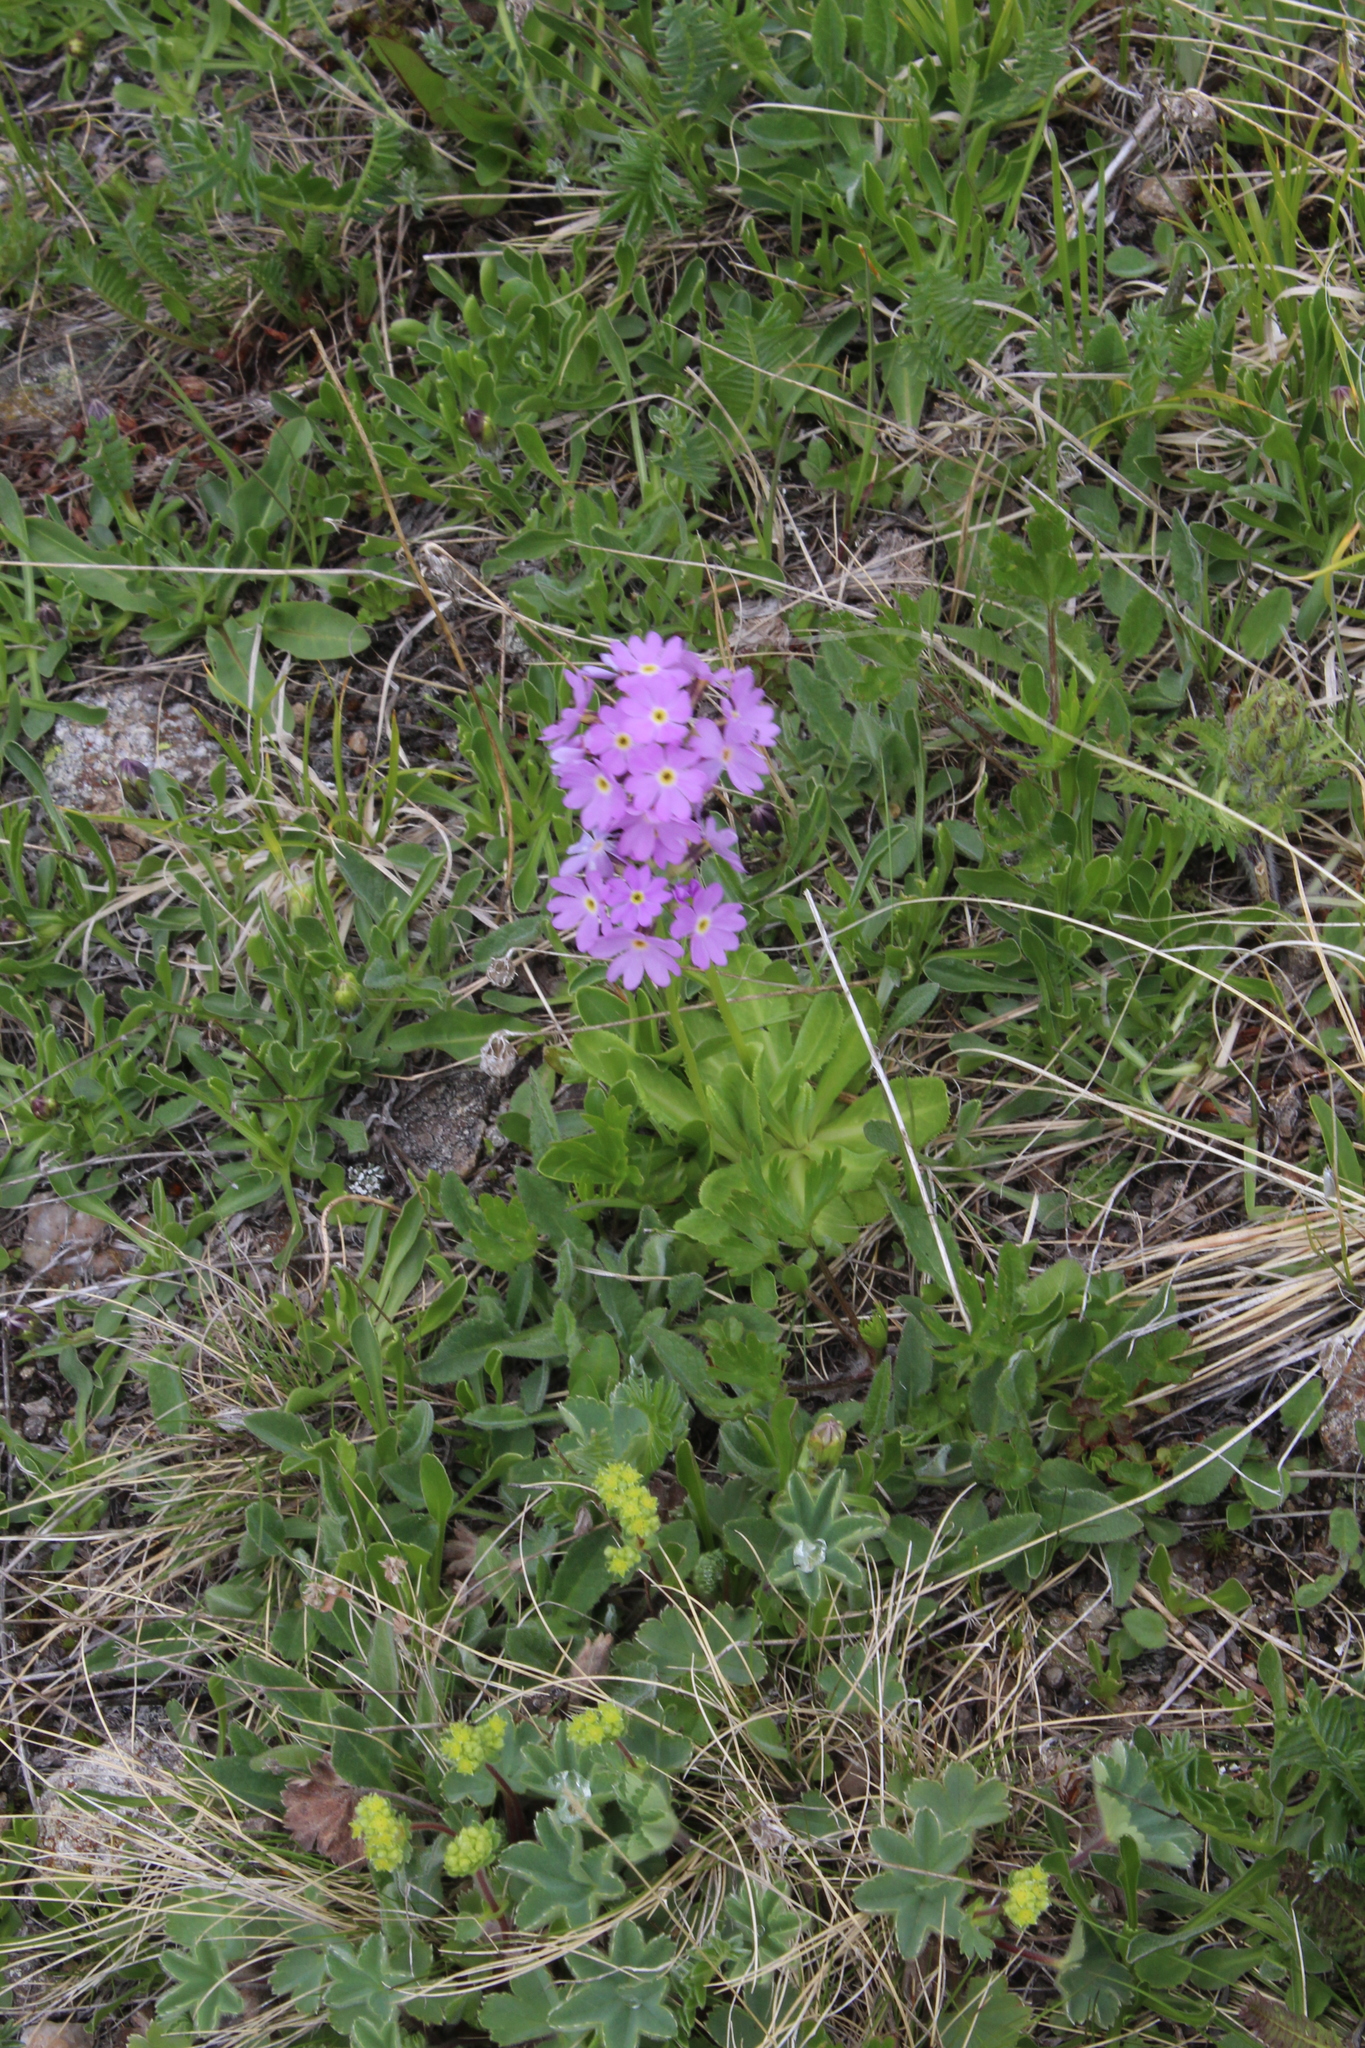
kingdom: Plantae
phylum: Tracheophyta
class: Magnoliopsida
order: Ericales
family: Primulaceae
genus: Primula
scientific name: Primula algida
